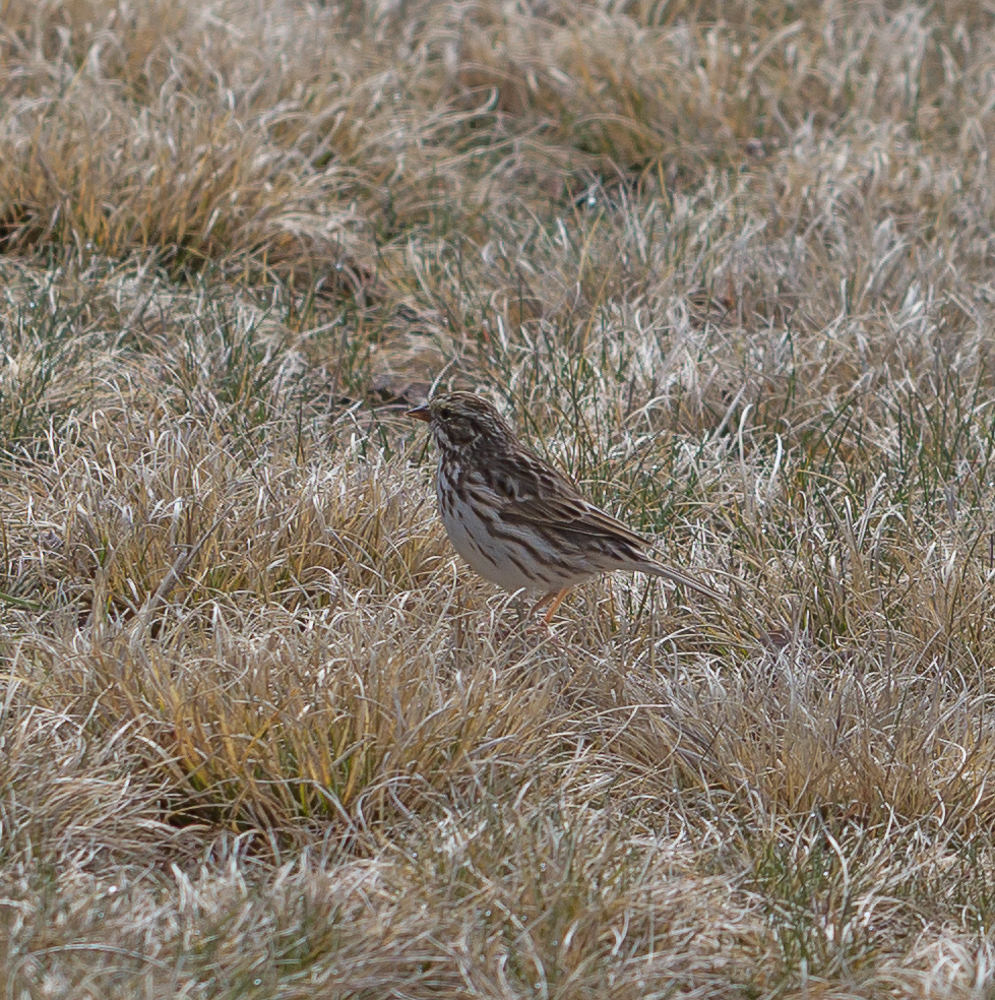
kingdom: Animalia
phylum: Chordata
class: Aves
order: Passeriformes
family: Passerellidae
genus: Passerculus
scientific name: Passerculus sandwichensis
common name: Savannah sparrow
